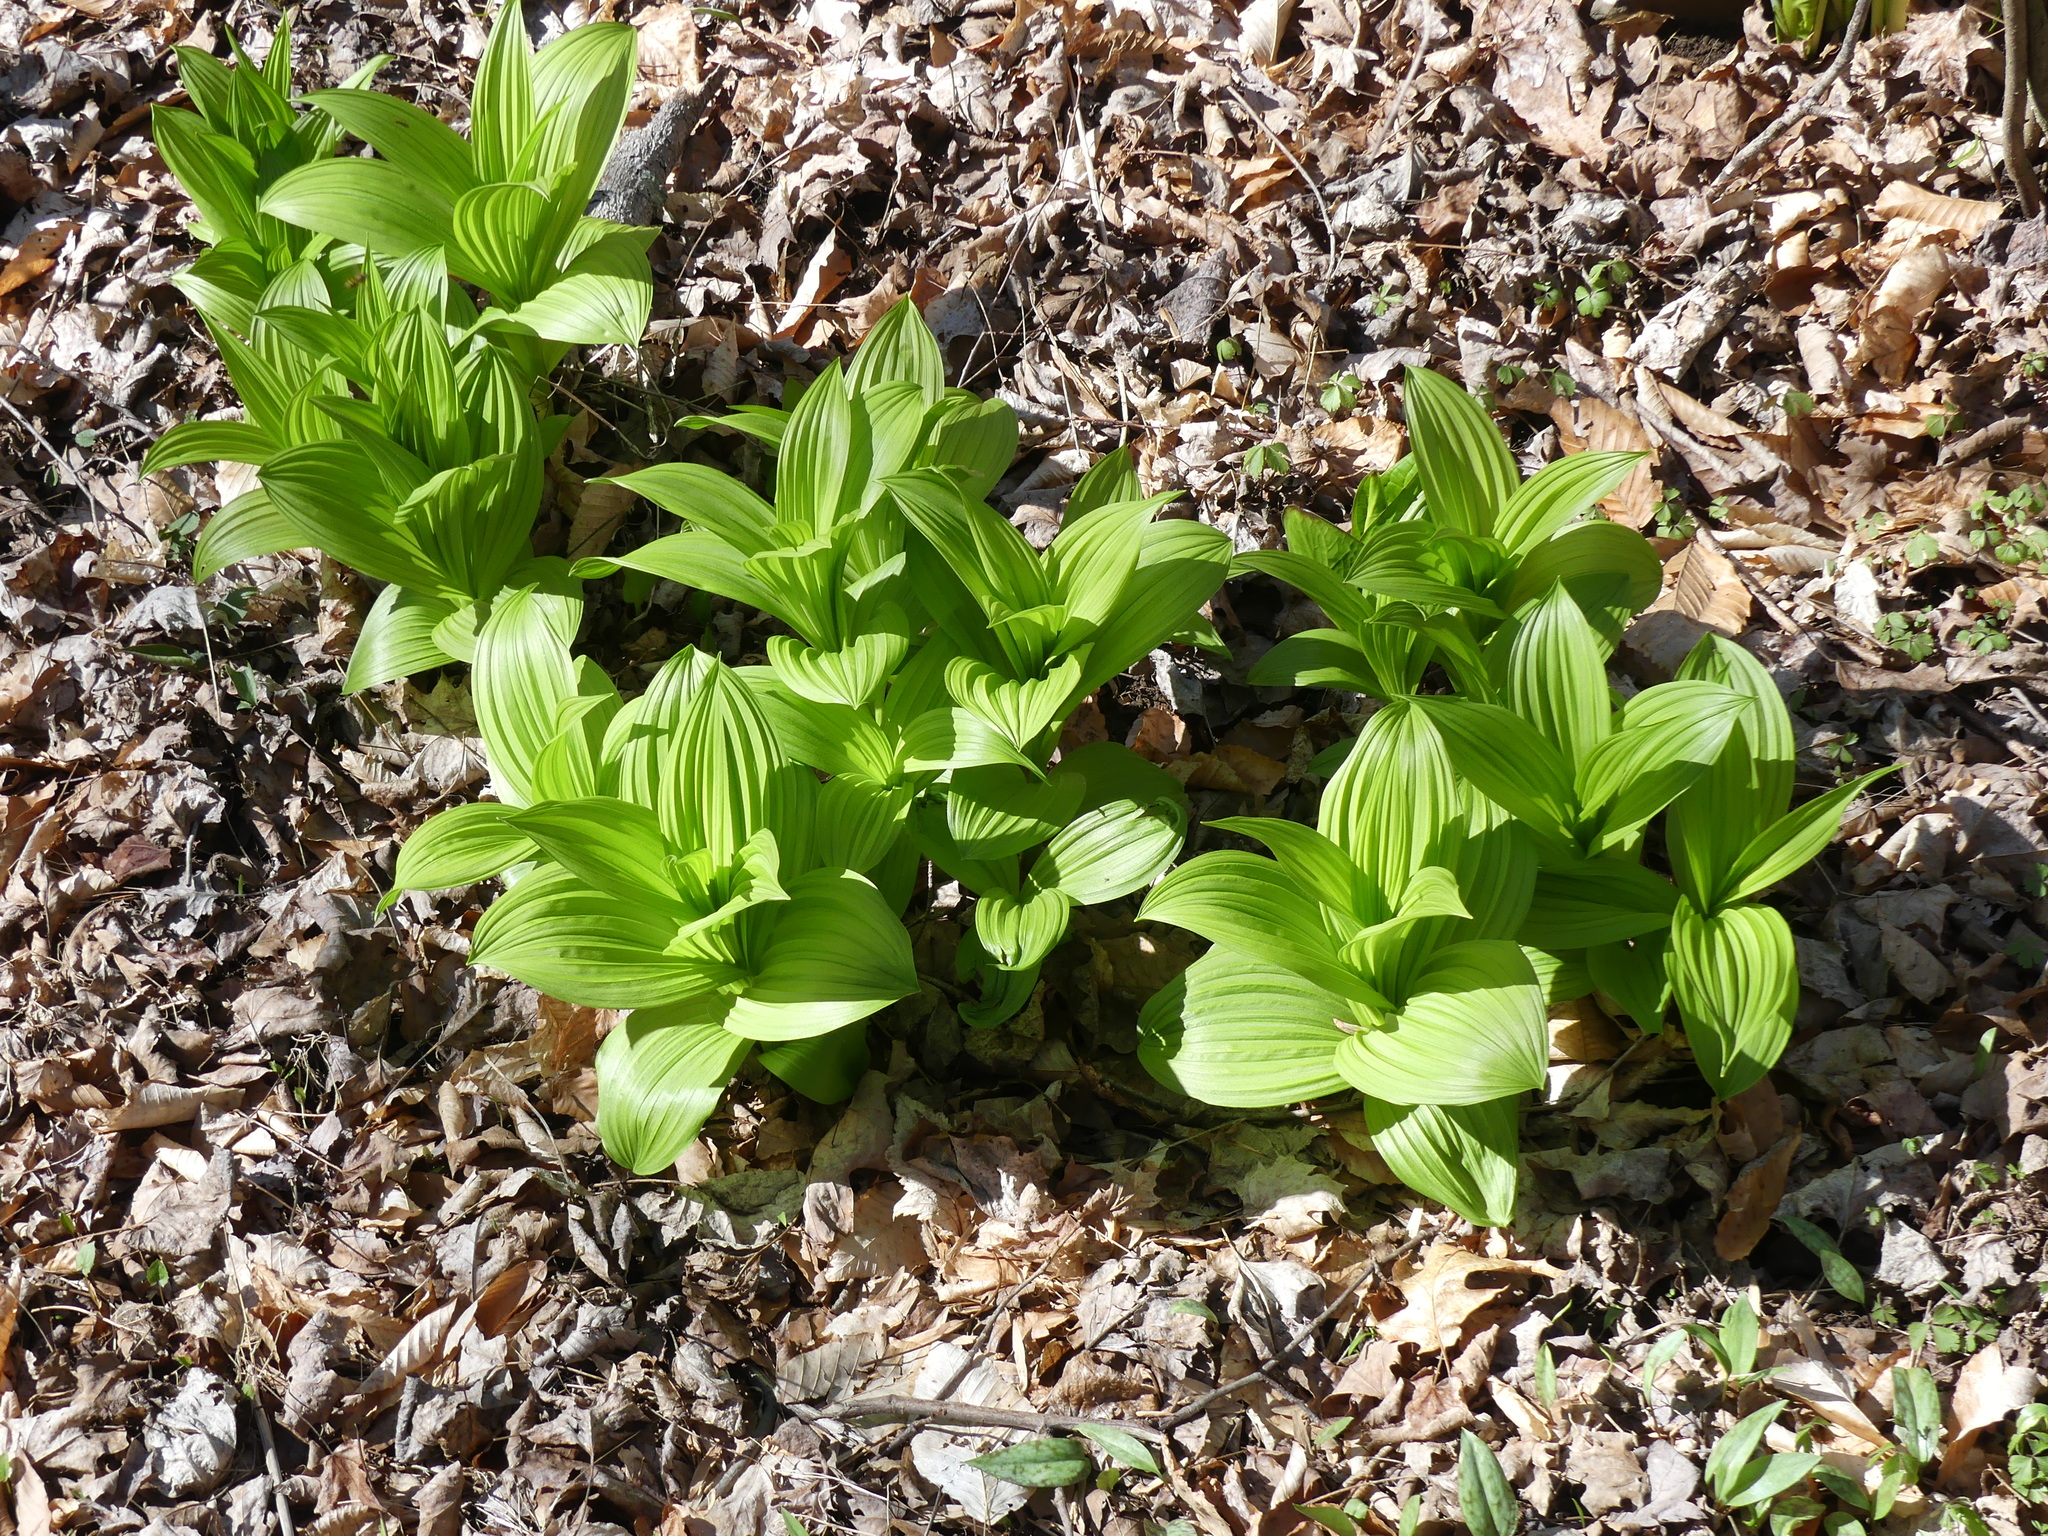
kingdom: Plantae
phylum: Tracheophyta
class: Liliopsida
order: Liliales
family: Melanthiaceae
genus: Veratrum
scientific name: Veratrum viride
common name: American false hellebore
